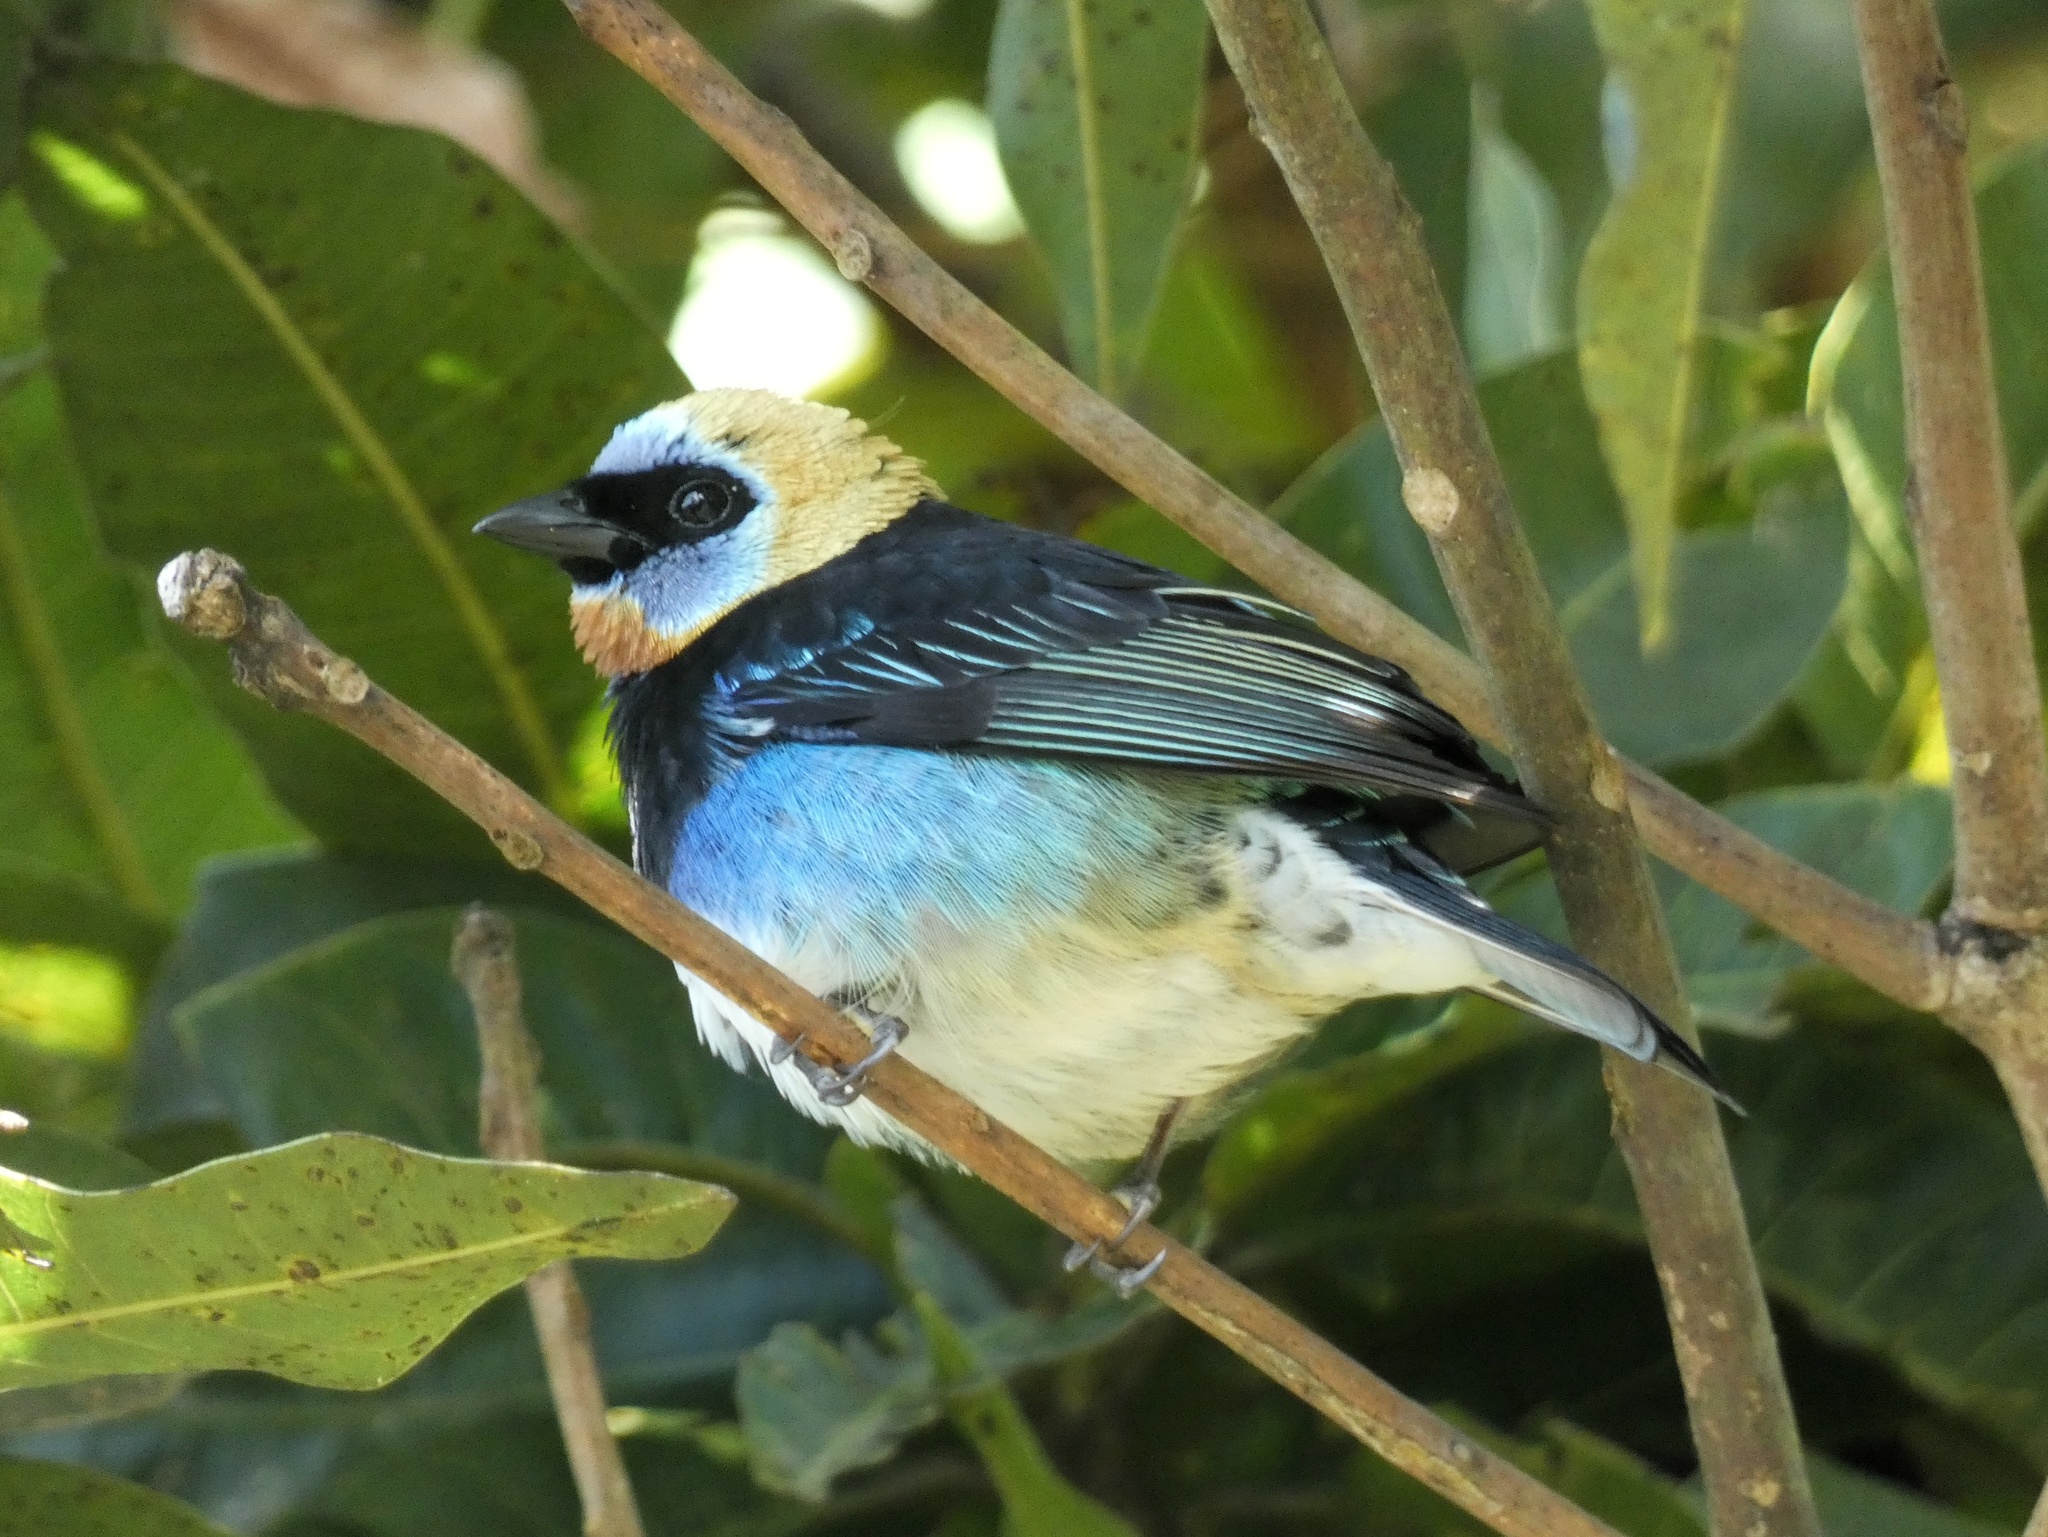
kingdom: Animalia
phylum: Chordata
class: Aves
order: Passeriformes
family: Thraupidae
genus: Stilpnia
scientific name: Stilpnia larvata
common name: Golden-hooded tanager
